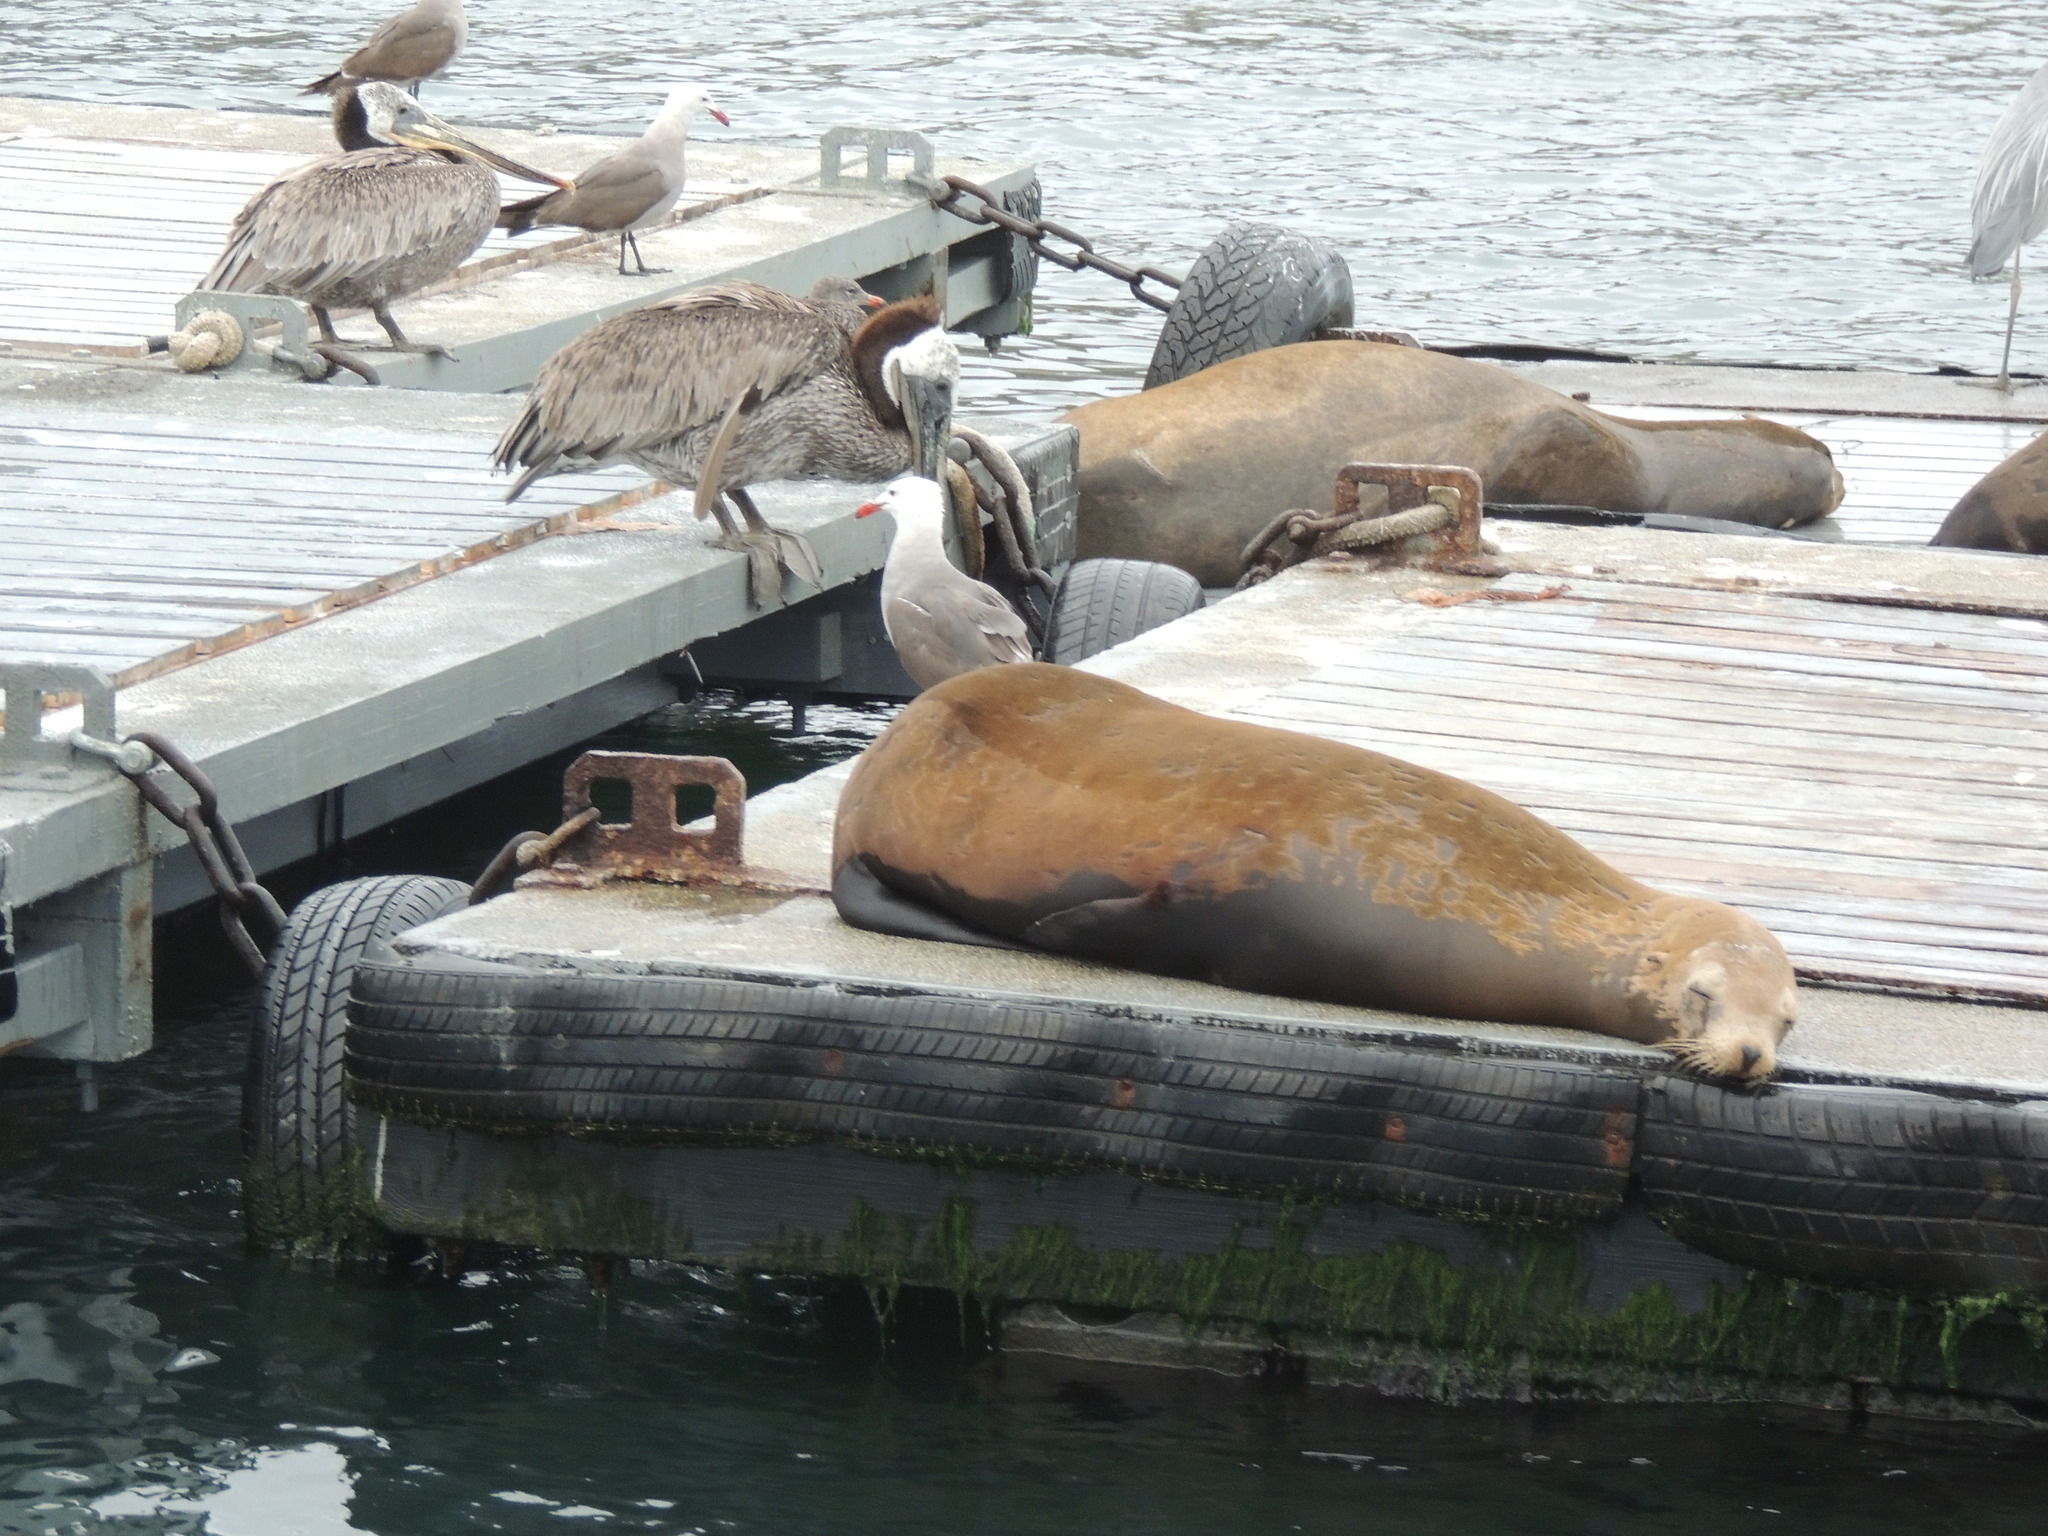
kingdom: Animalia
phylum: Chordata
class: Mammalia
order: Carnivora
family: Otariidae
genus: Zalophus
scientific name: Zalophus californianus
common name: California sea lion
